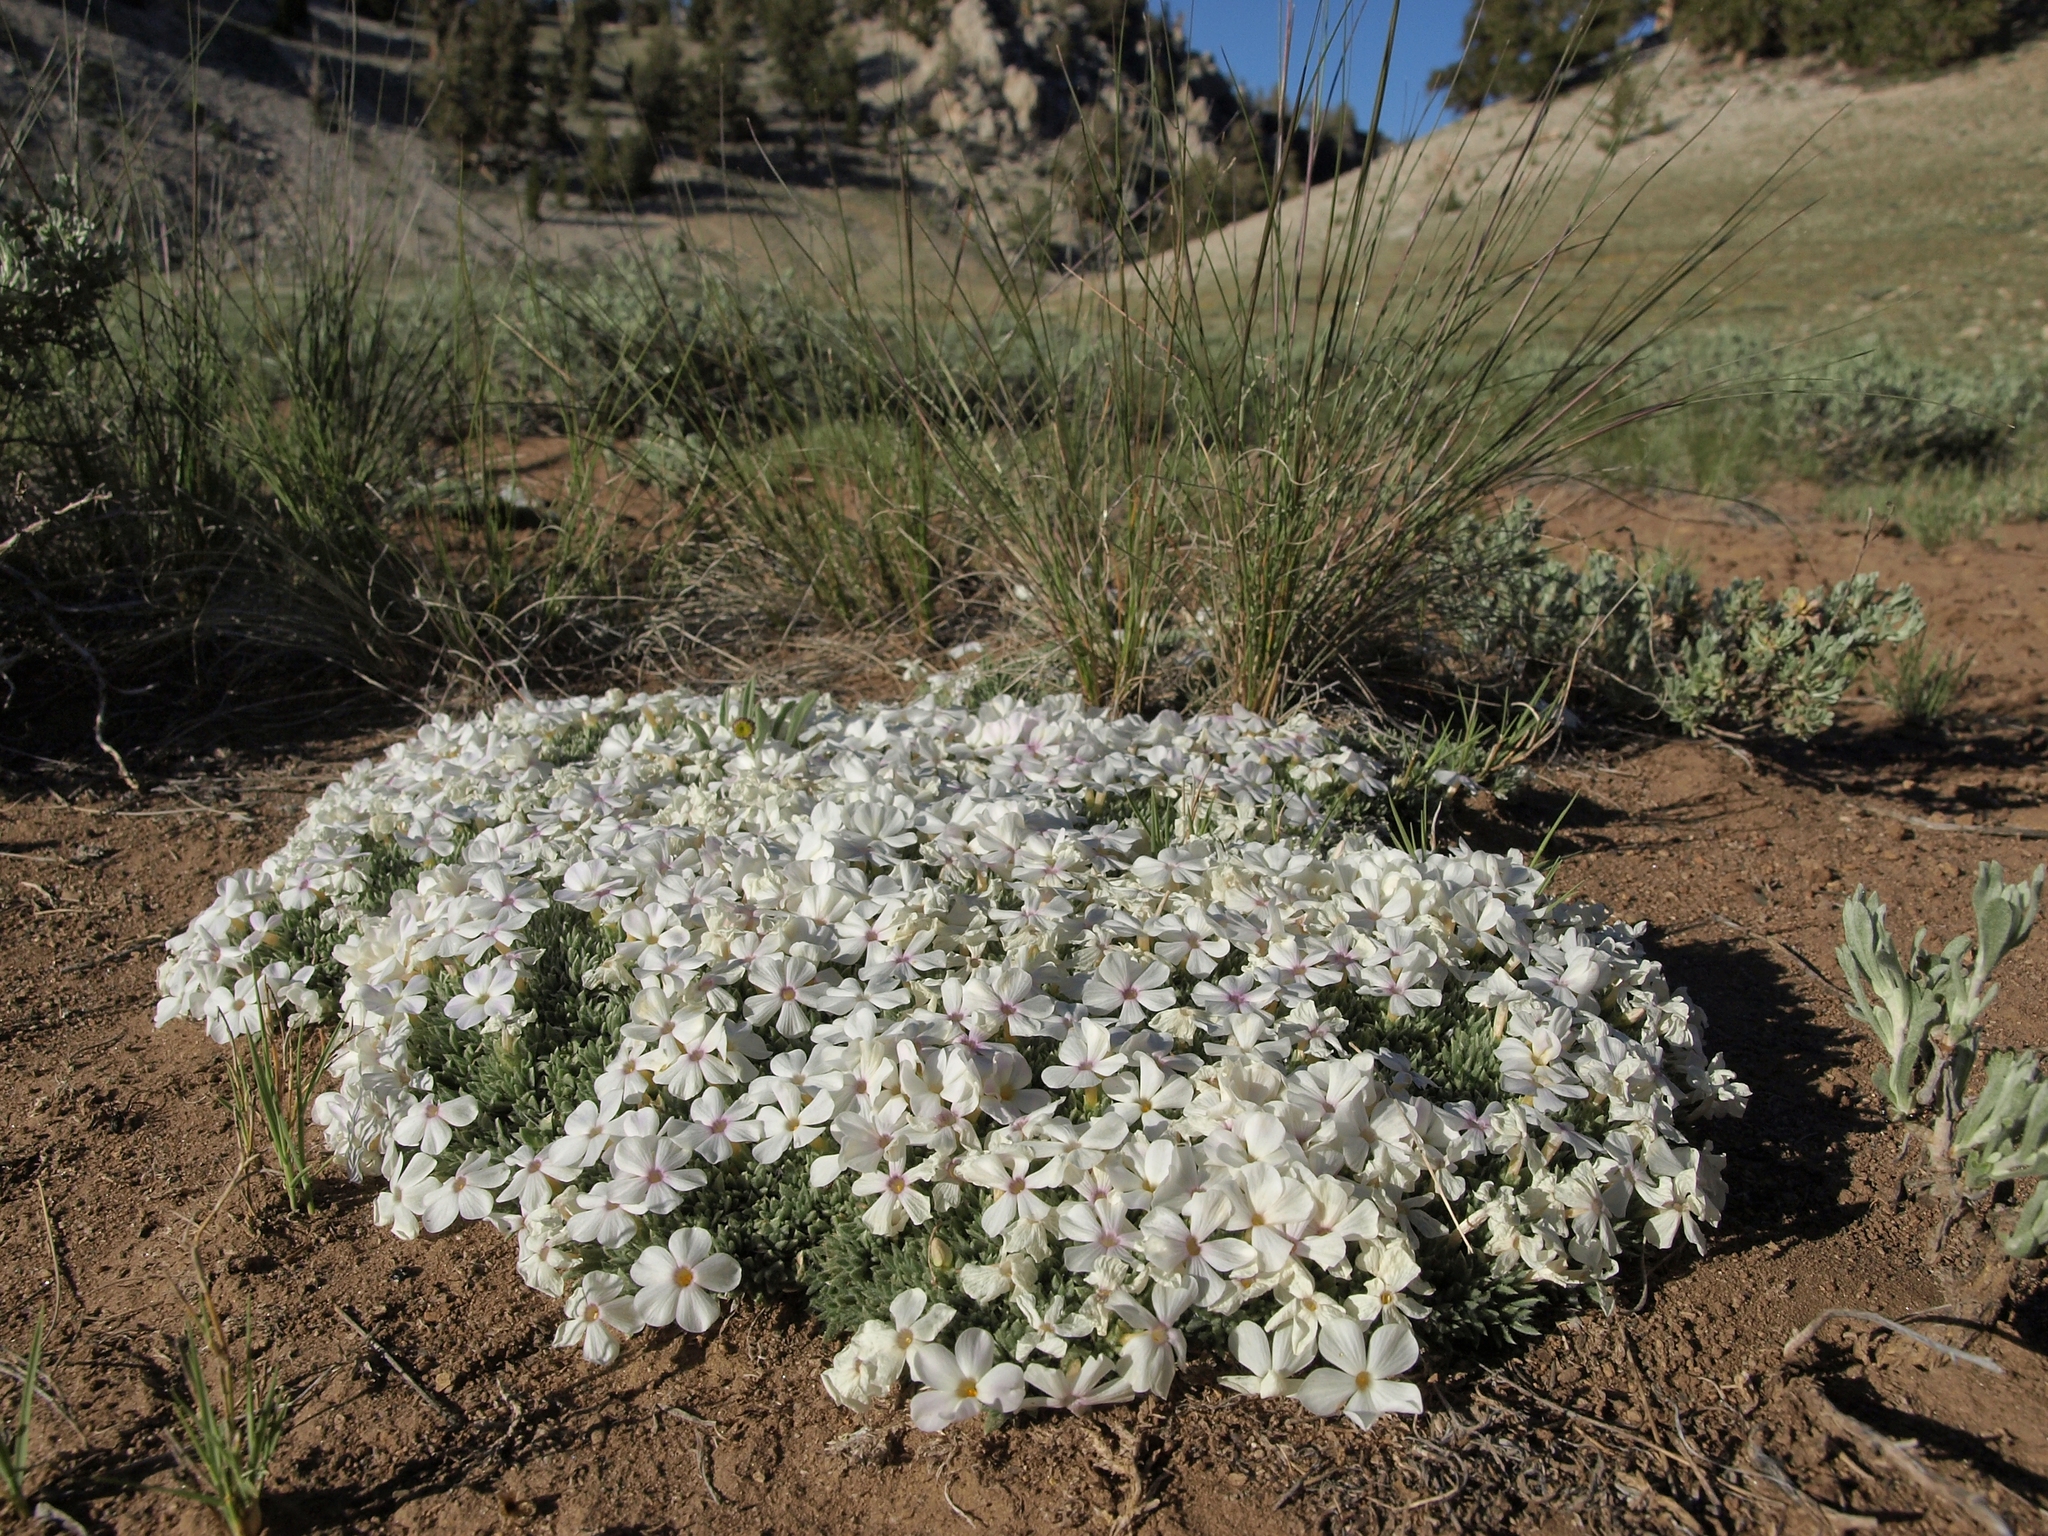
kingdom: Plantae
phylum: Tracheophyta
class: Magnoliopsida
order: Ericales
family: Polemoniaceae
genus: Phlox
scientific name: Phlox condensata
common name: Compact phlox
